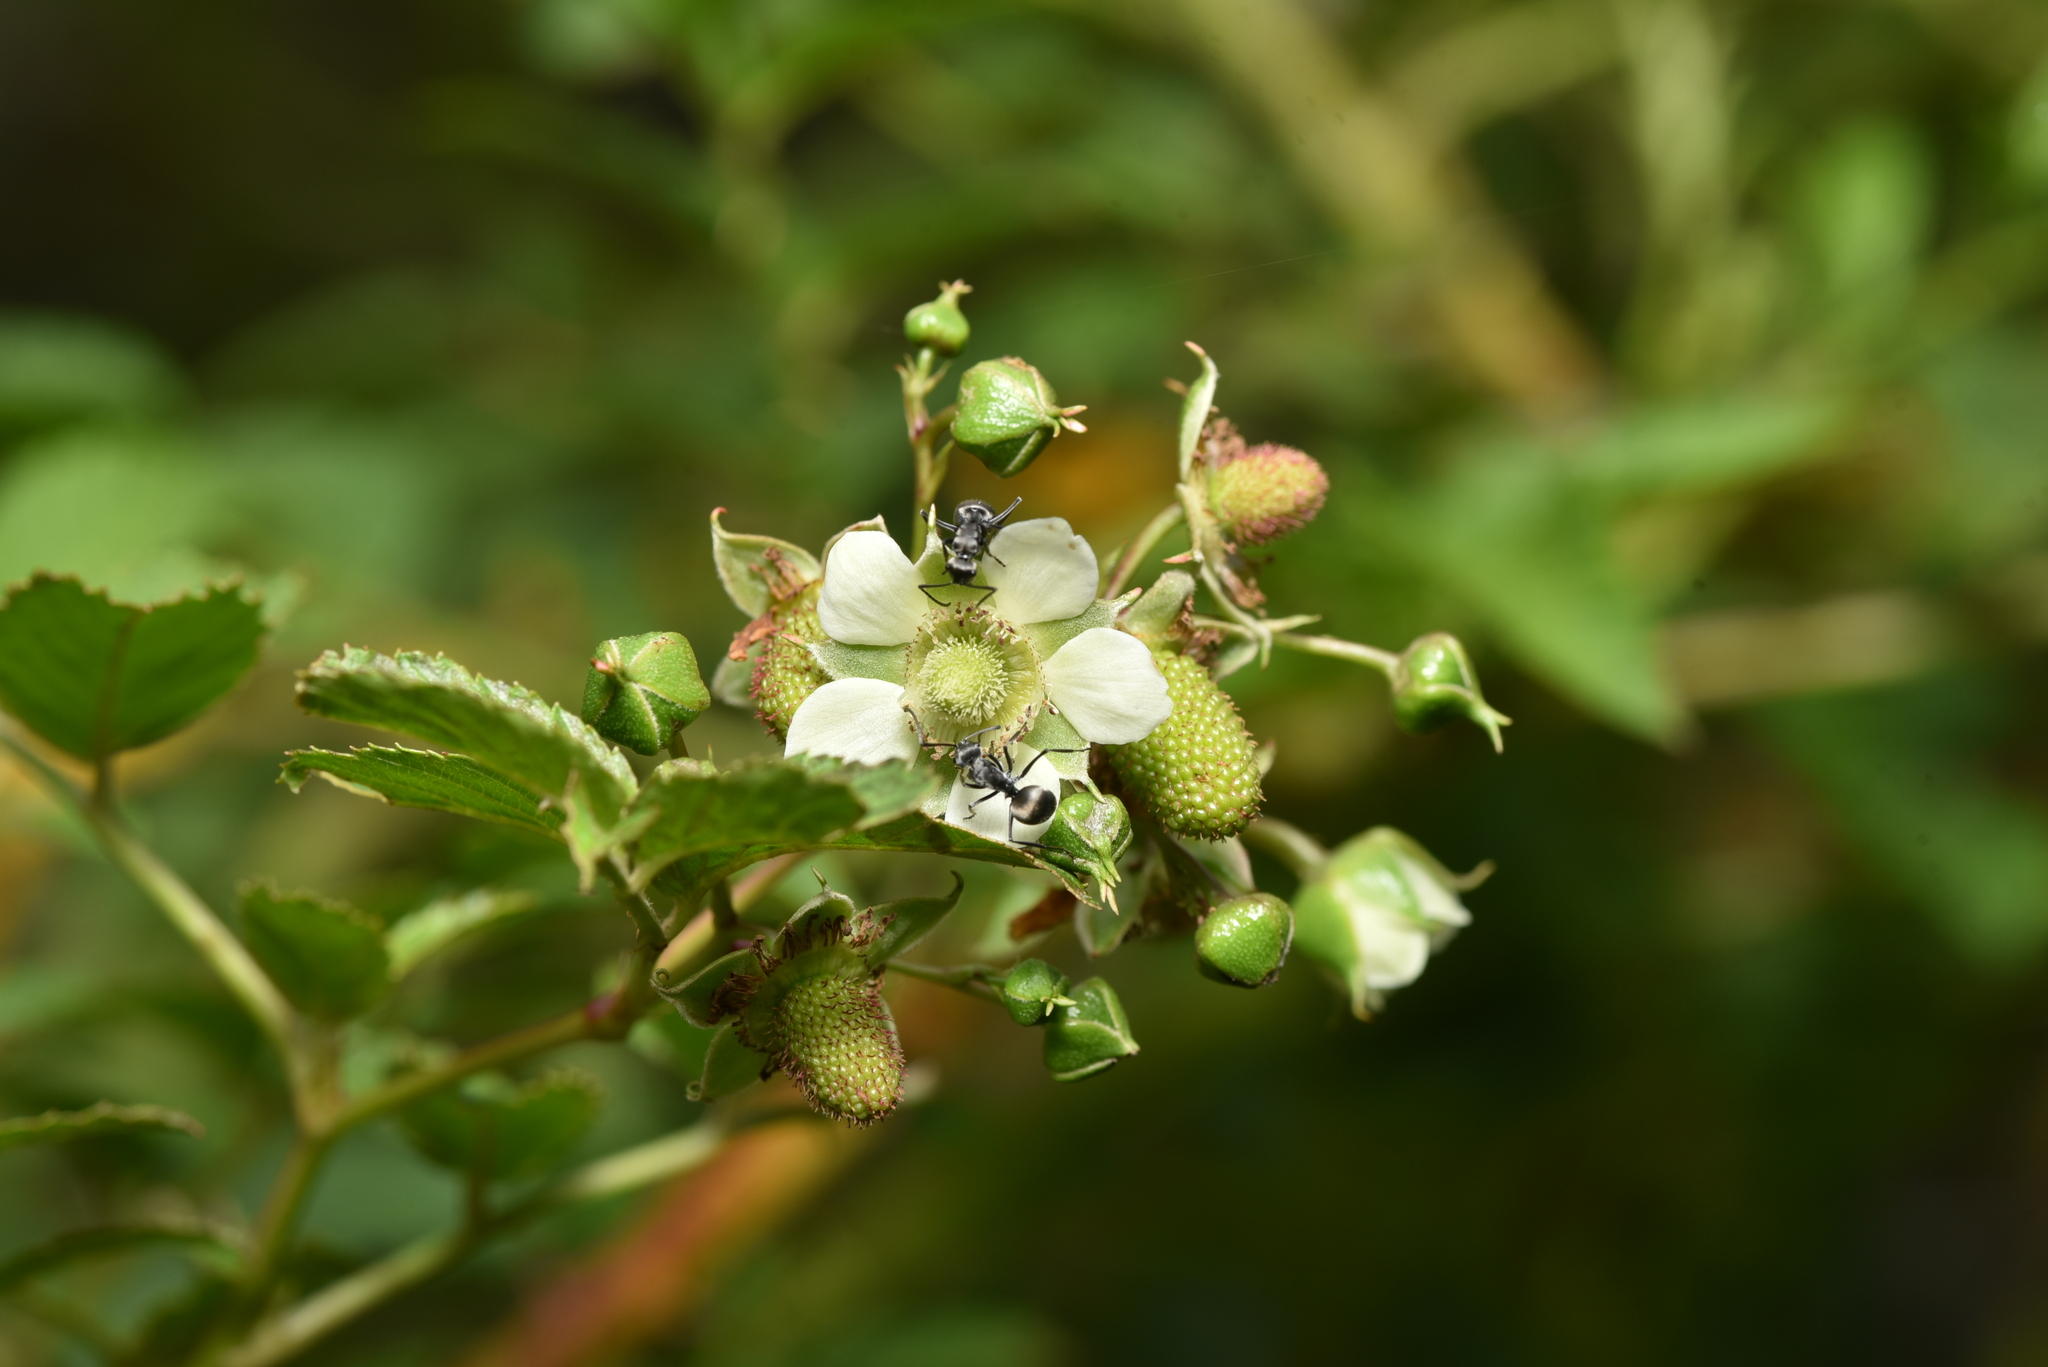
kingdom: Plantae
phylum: Tracheophyta
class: Magnoliopsida
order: Rosales
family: Rosaceae
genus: Rubus
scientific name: Rubus fraxinifolius
